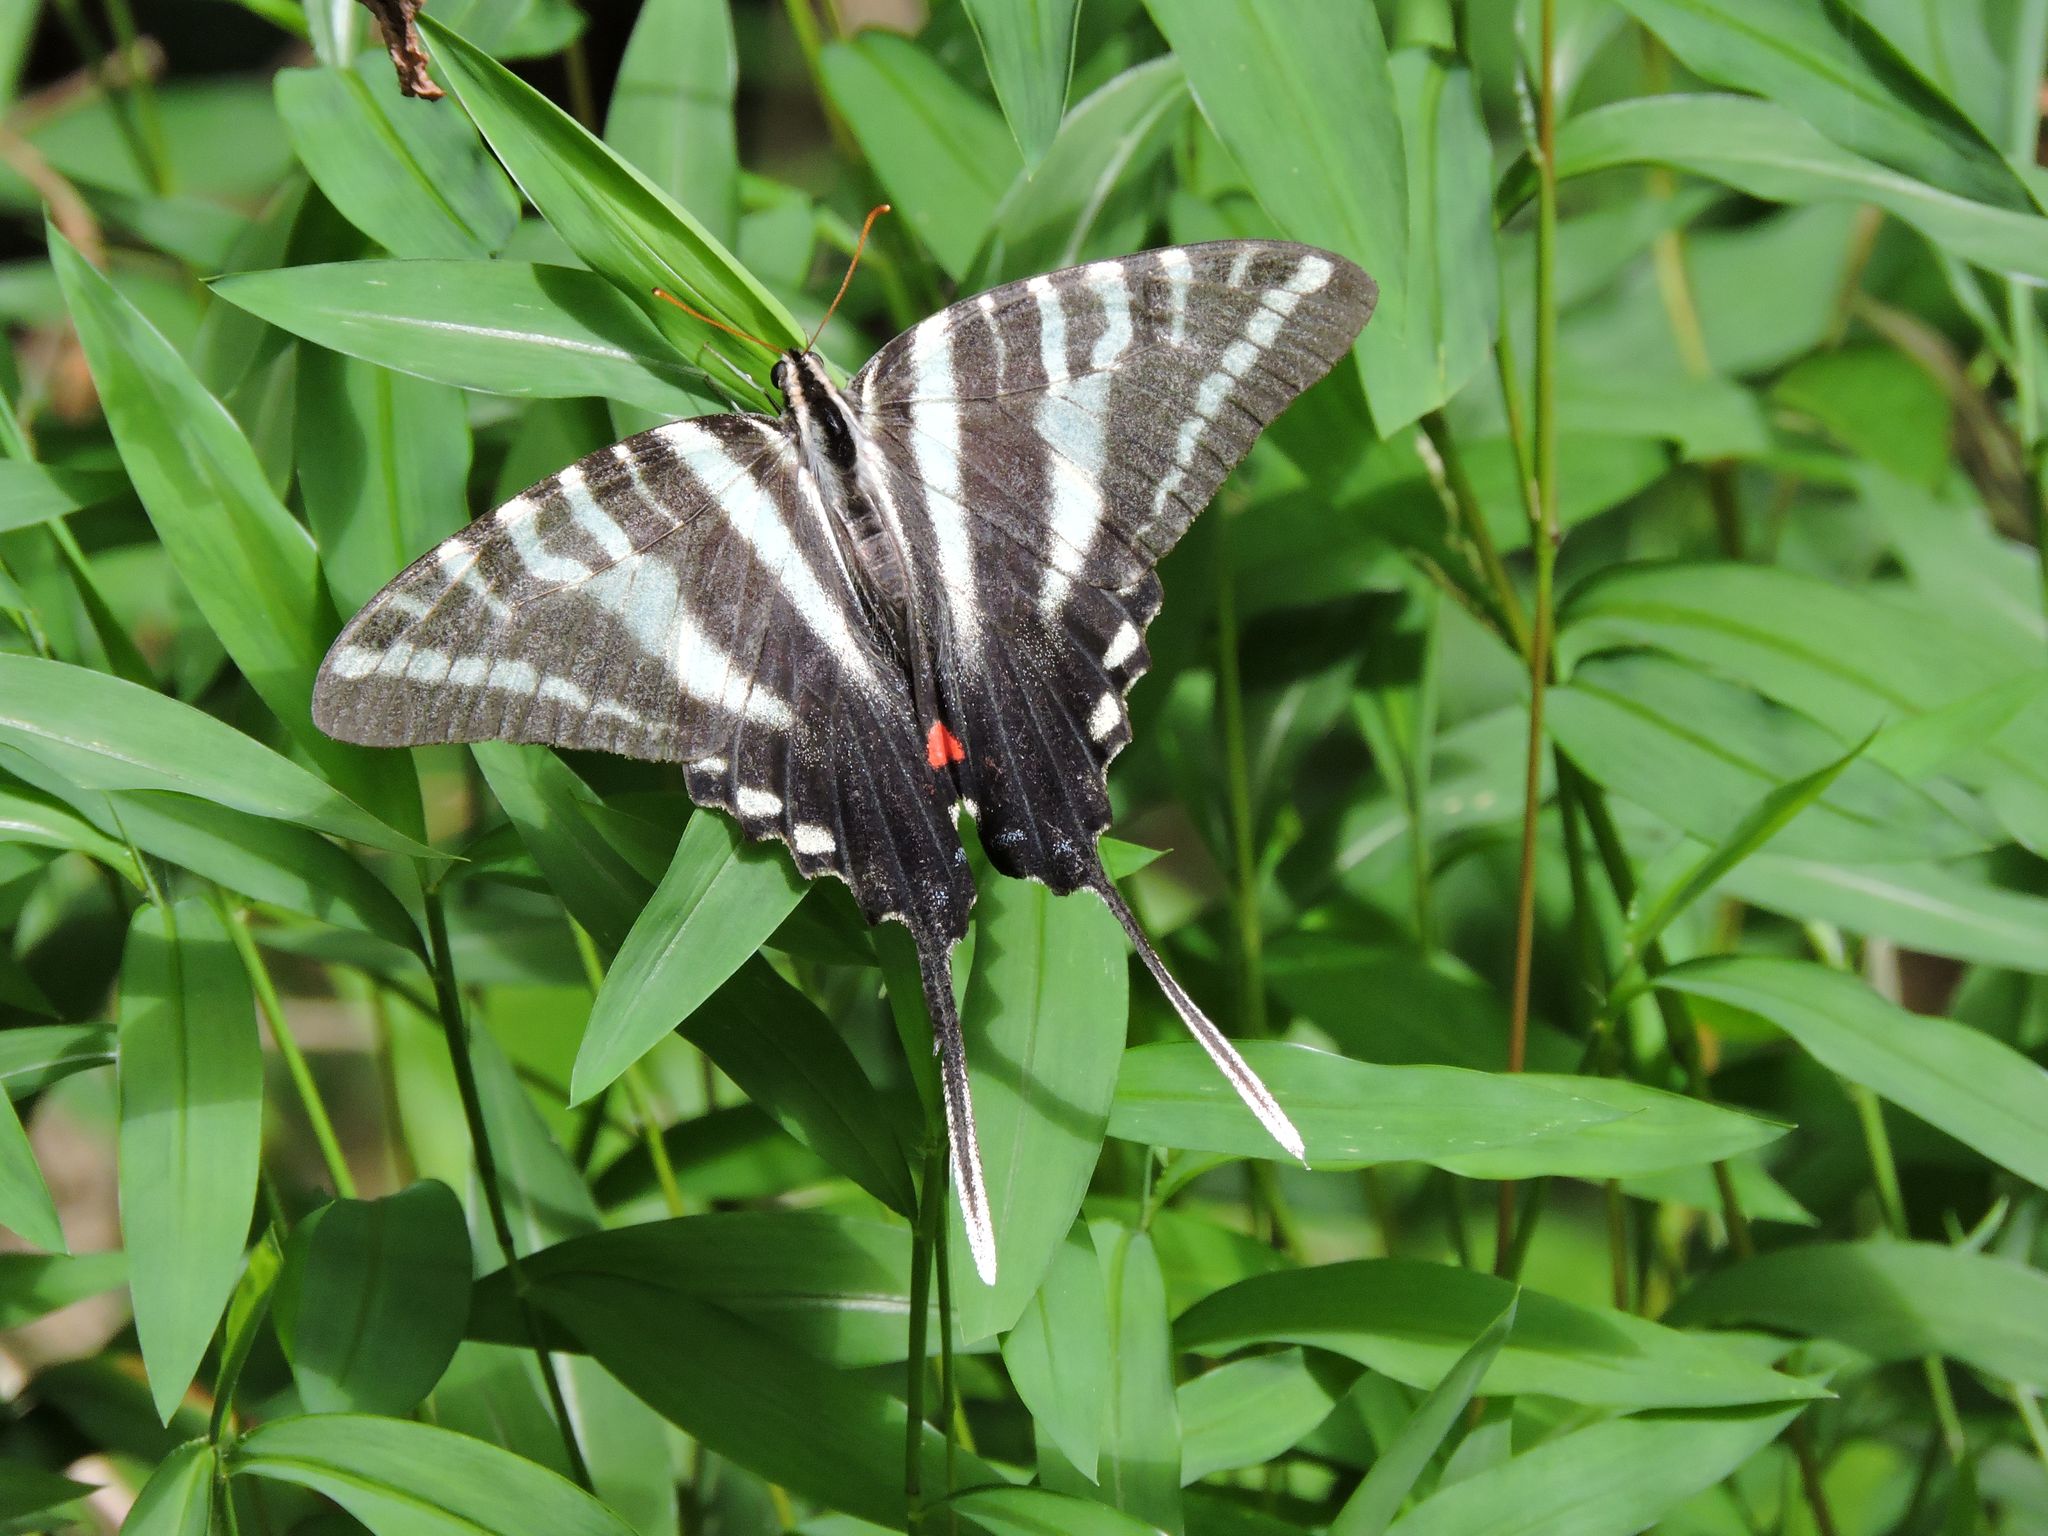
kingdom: Animalia
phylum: Arthropoda
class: Insecta
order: Lepidoptera
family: Papilionidae
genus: Protographium
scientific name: Protographium marcellus
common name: Zebra swallowtail
